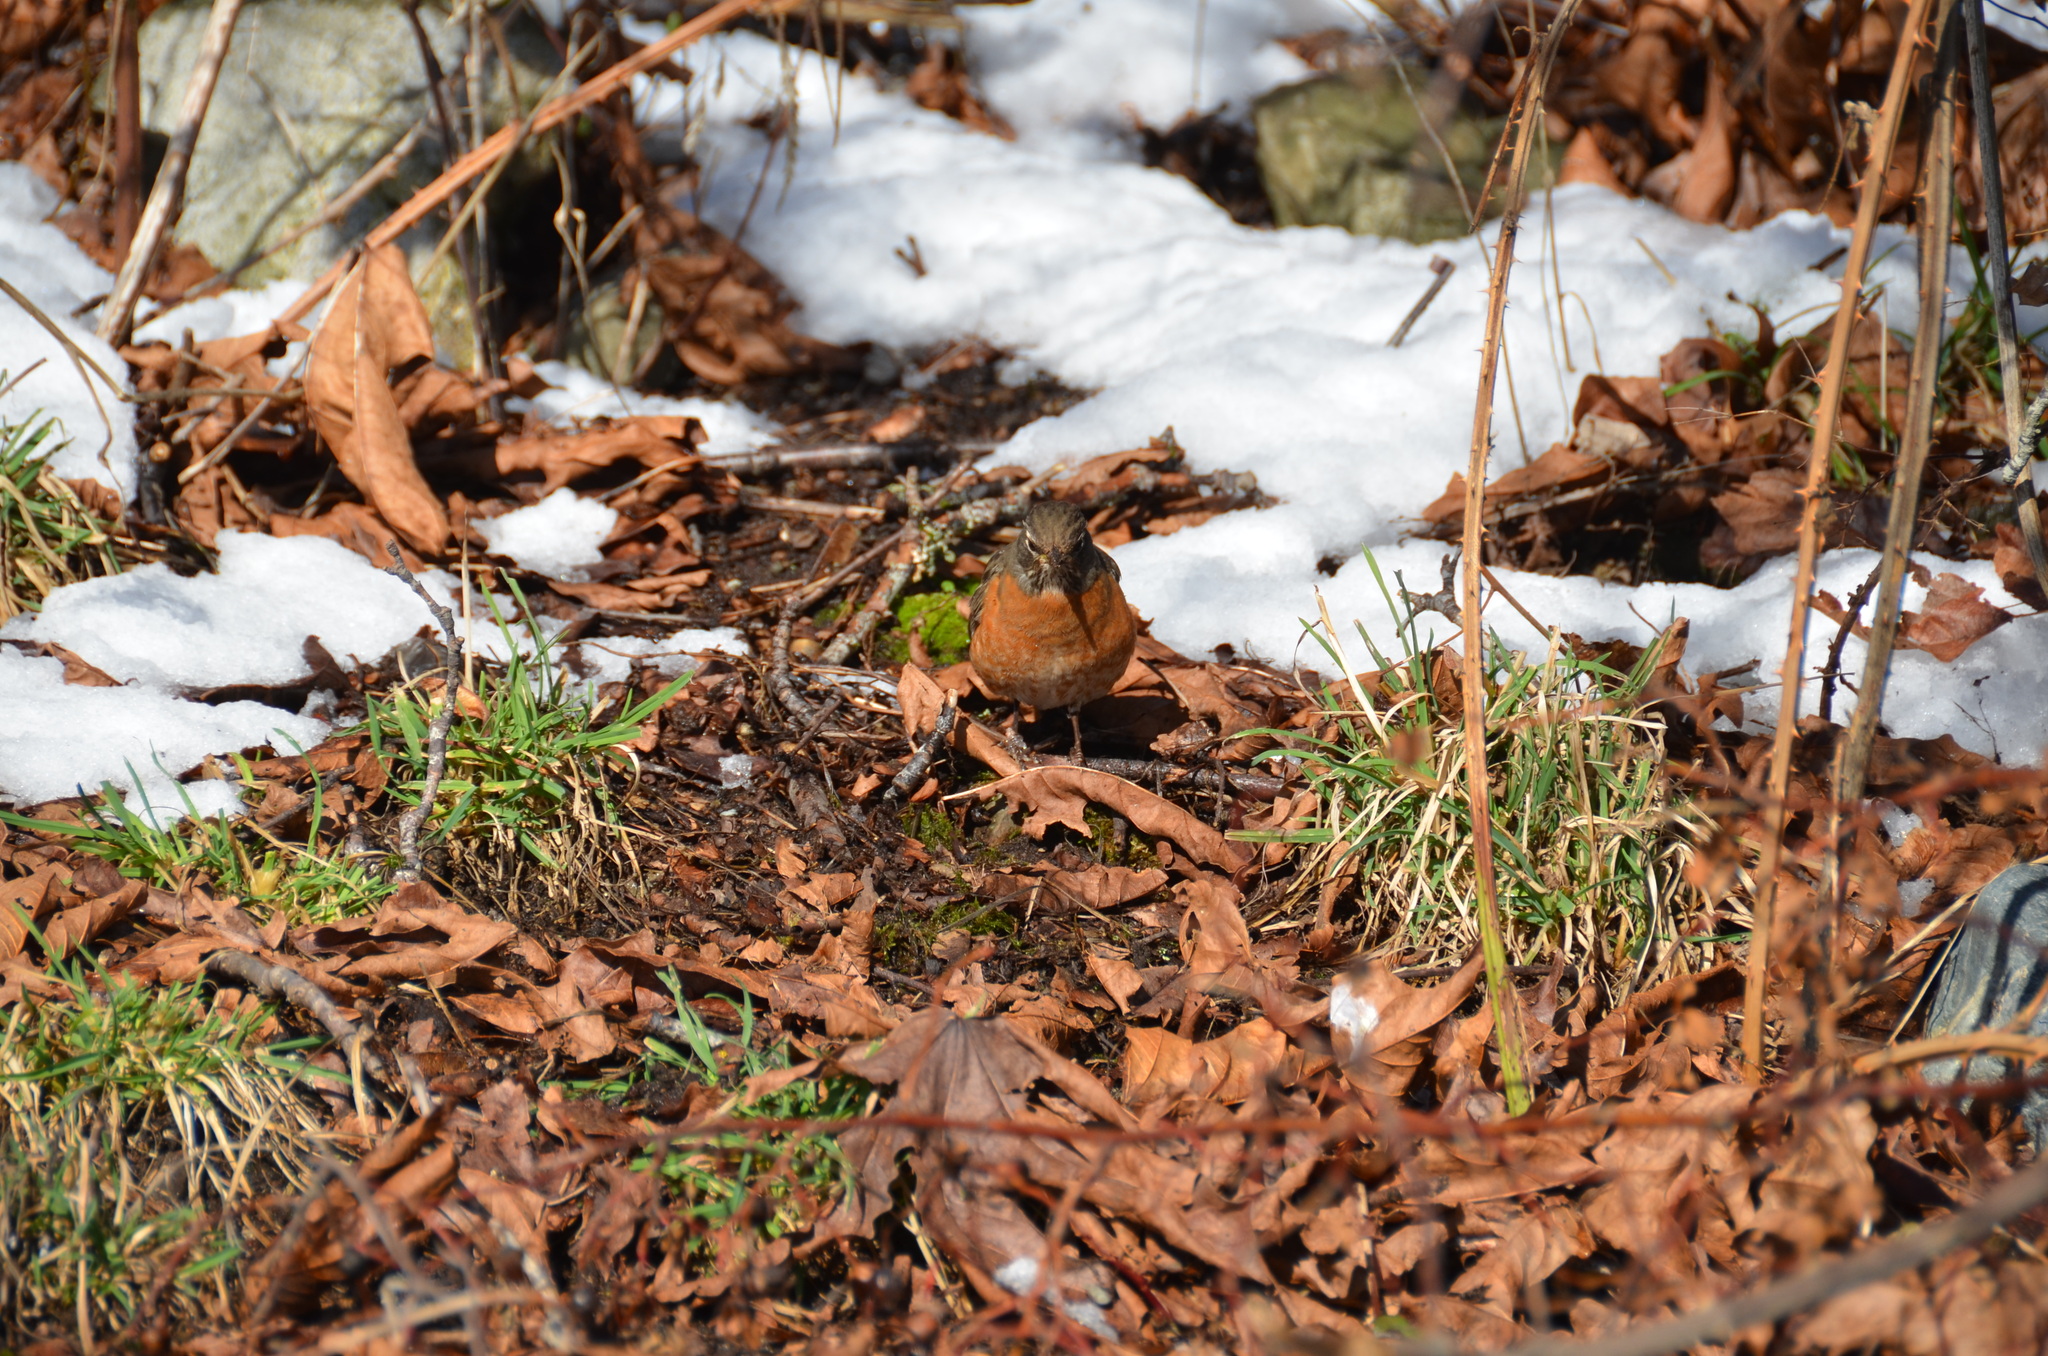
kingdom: Animalia
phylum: Chordata
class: Aves
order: Passeriformes
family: Turdidae
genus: Turdus
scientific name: Turdus migratorius
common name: American robin
